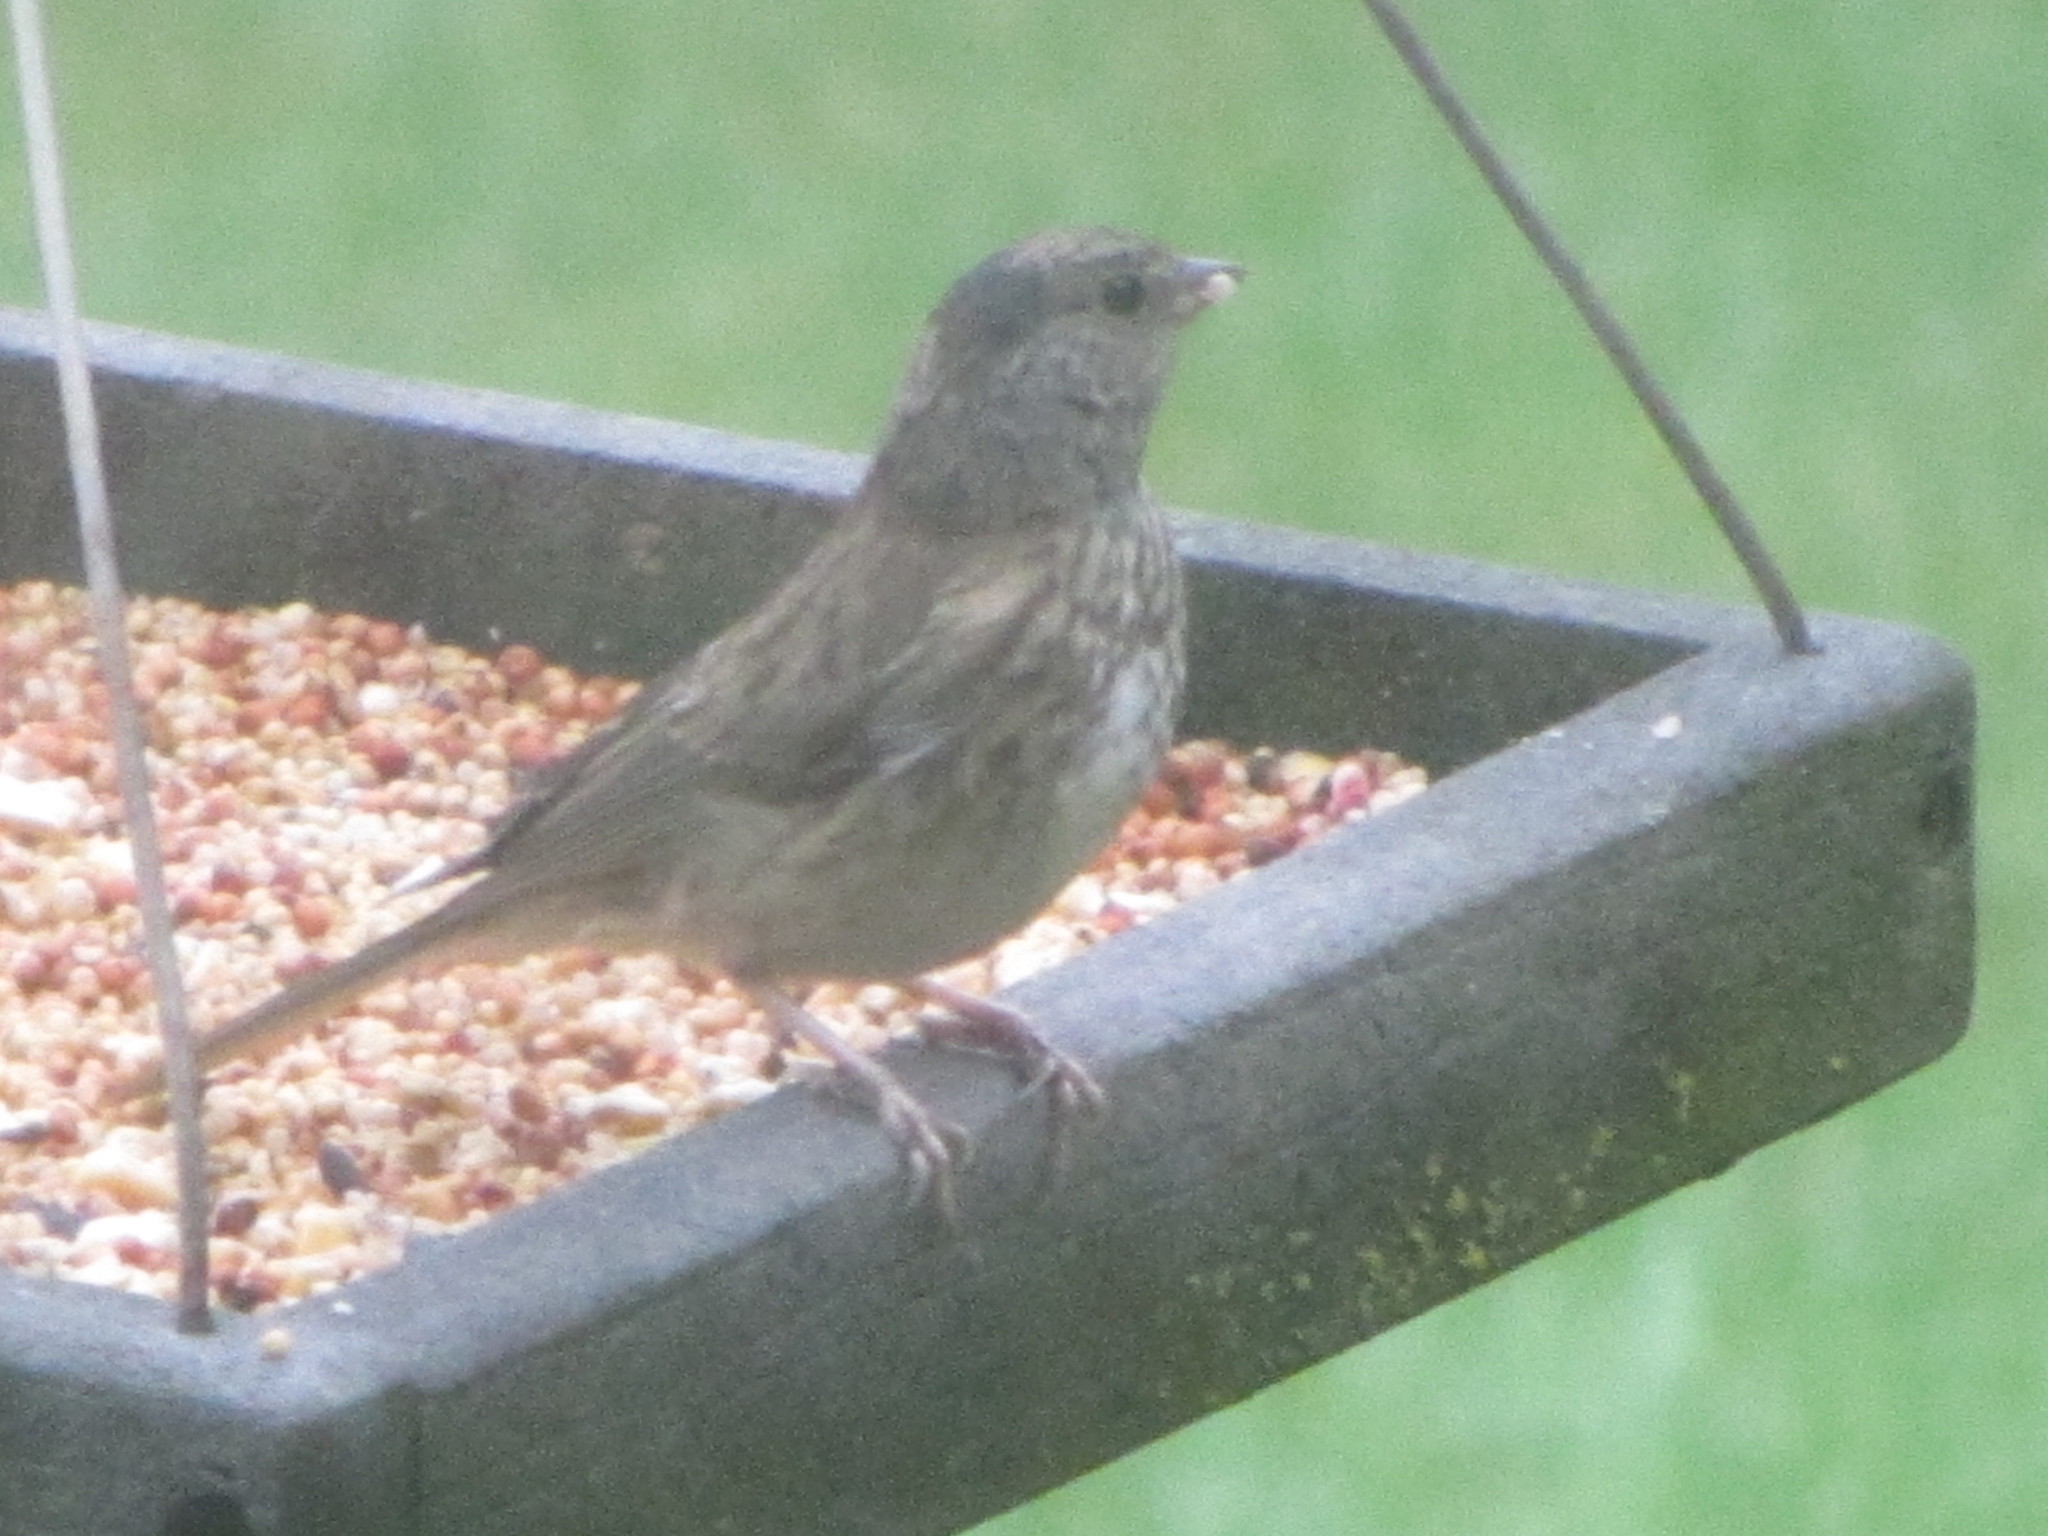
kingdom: Animalia
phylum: Chordata
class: Aves
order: Passeriformes
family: Passerellidae
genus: Junco
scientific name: Junco hyemalis
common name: Dark-eyed junco
